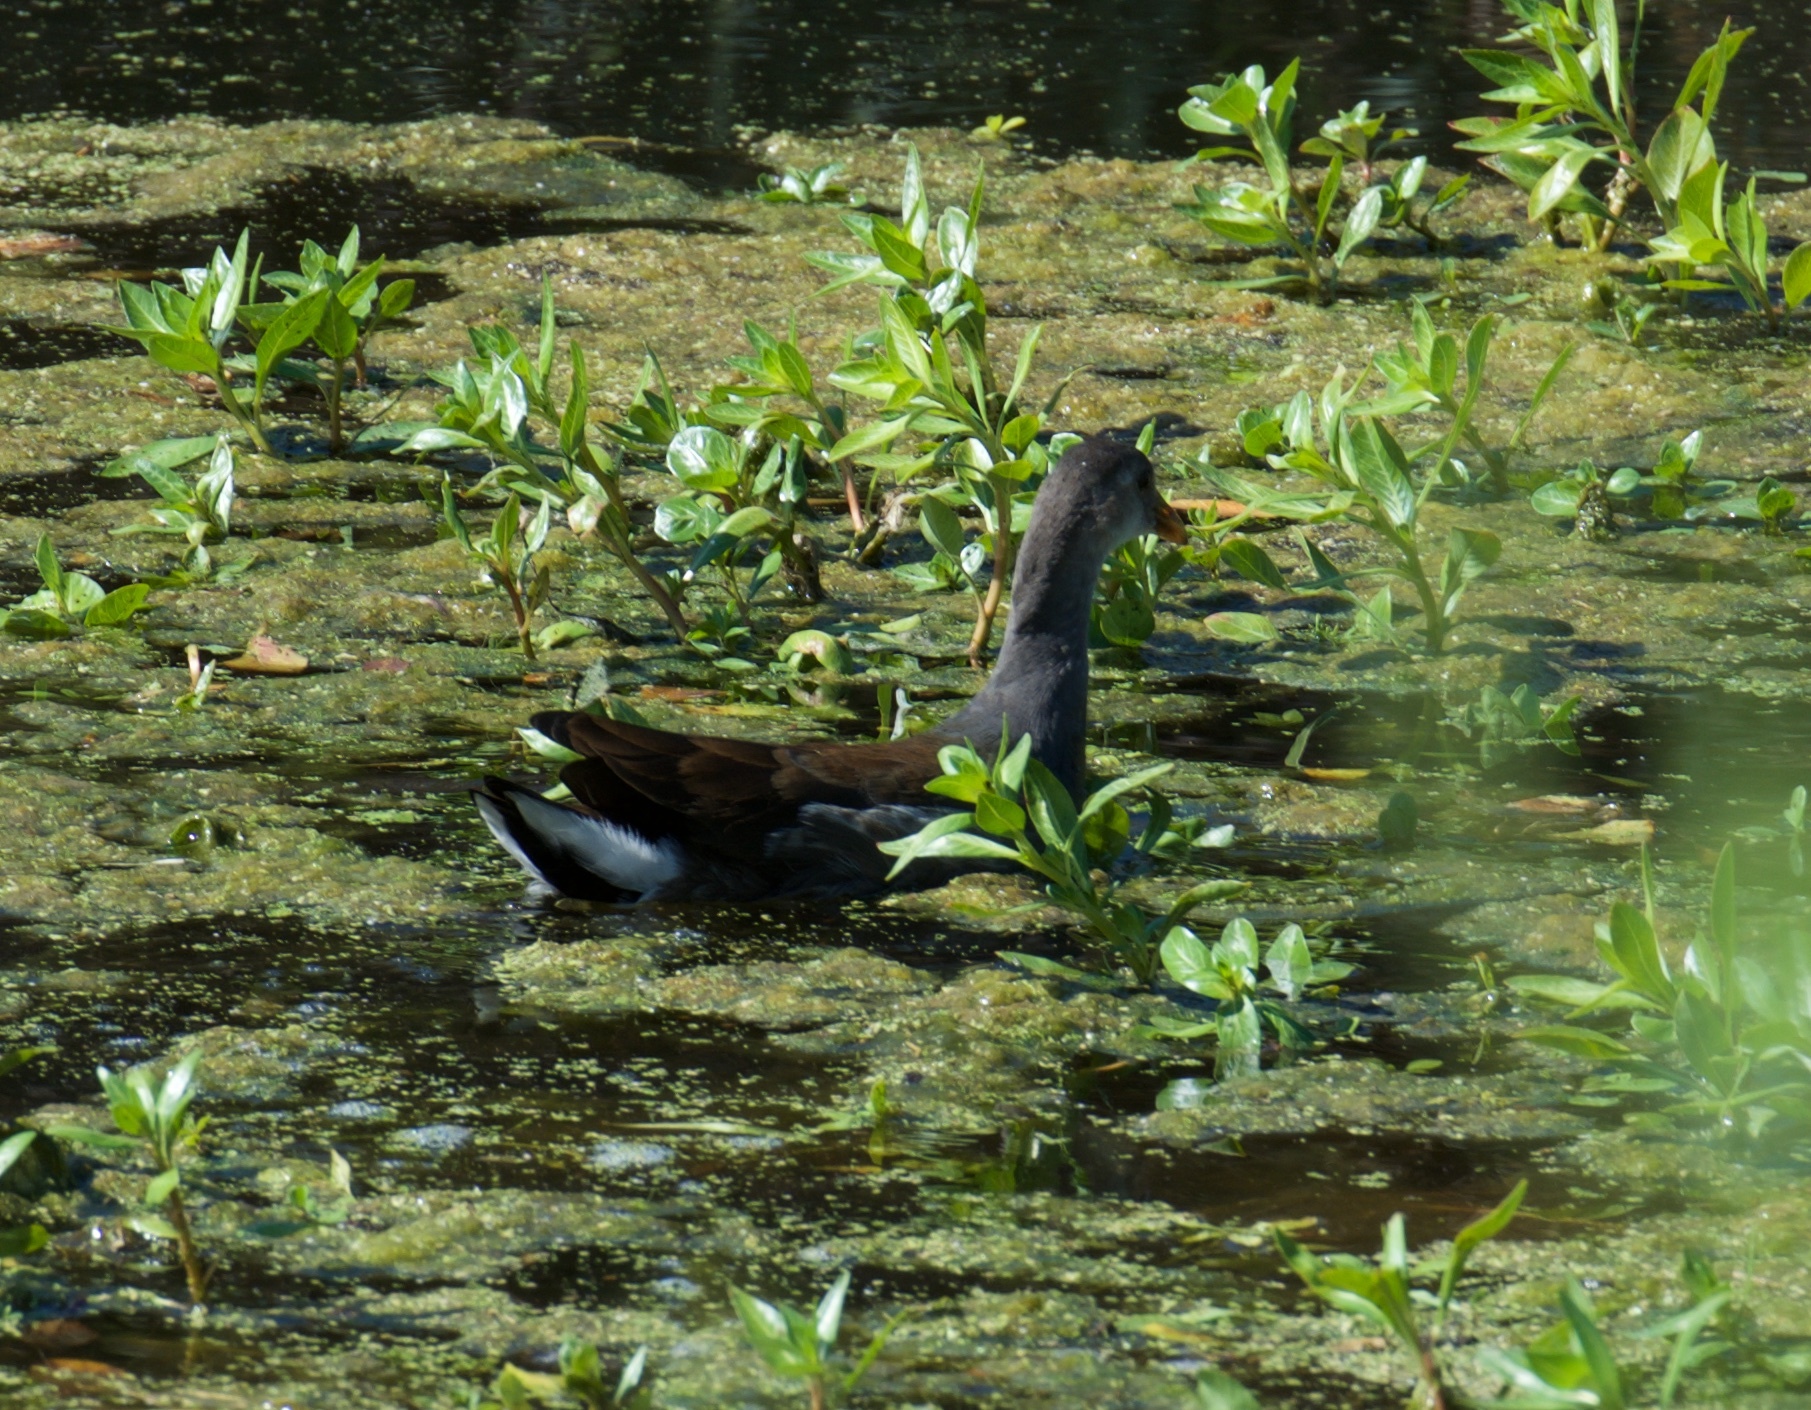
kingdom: Animalia
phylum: Chordata
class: Aves
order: Gruiformes
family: Rallidae
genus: Gallinula
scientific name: Gallinula chloropus
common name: Common moorhen
